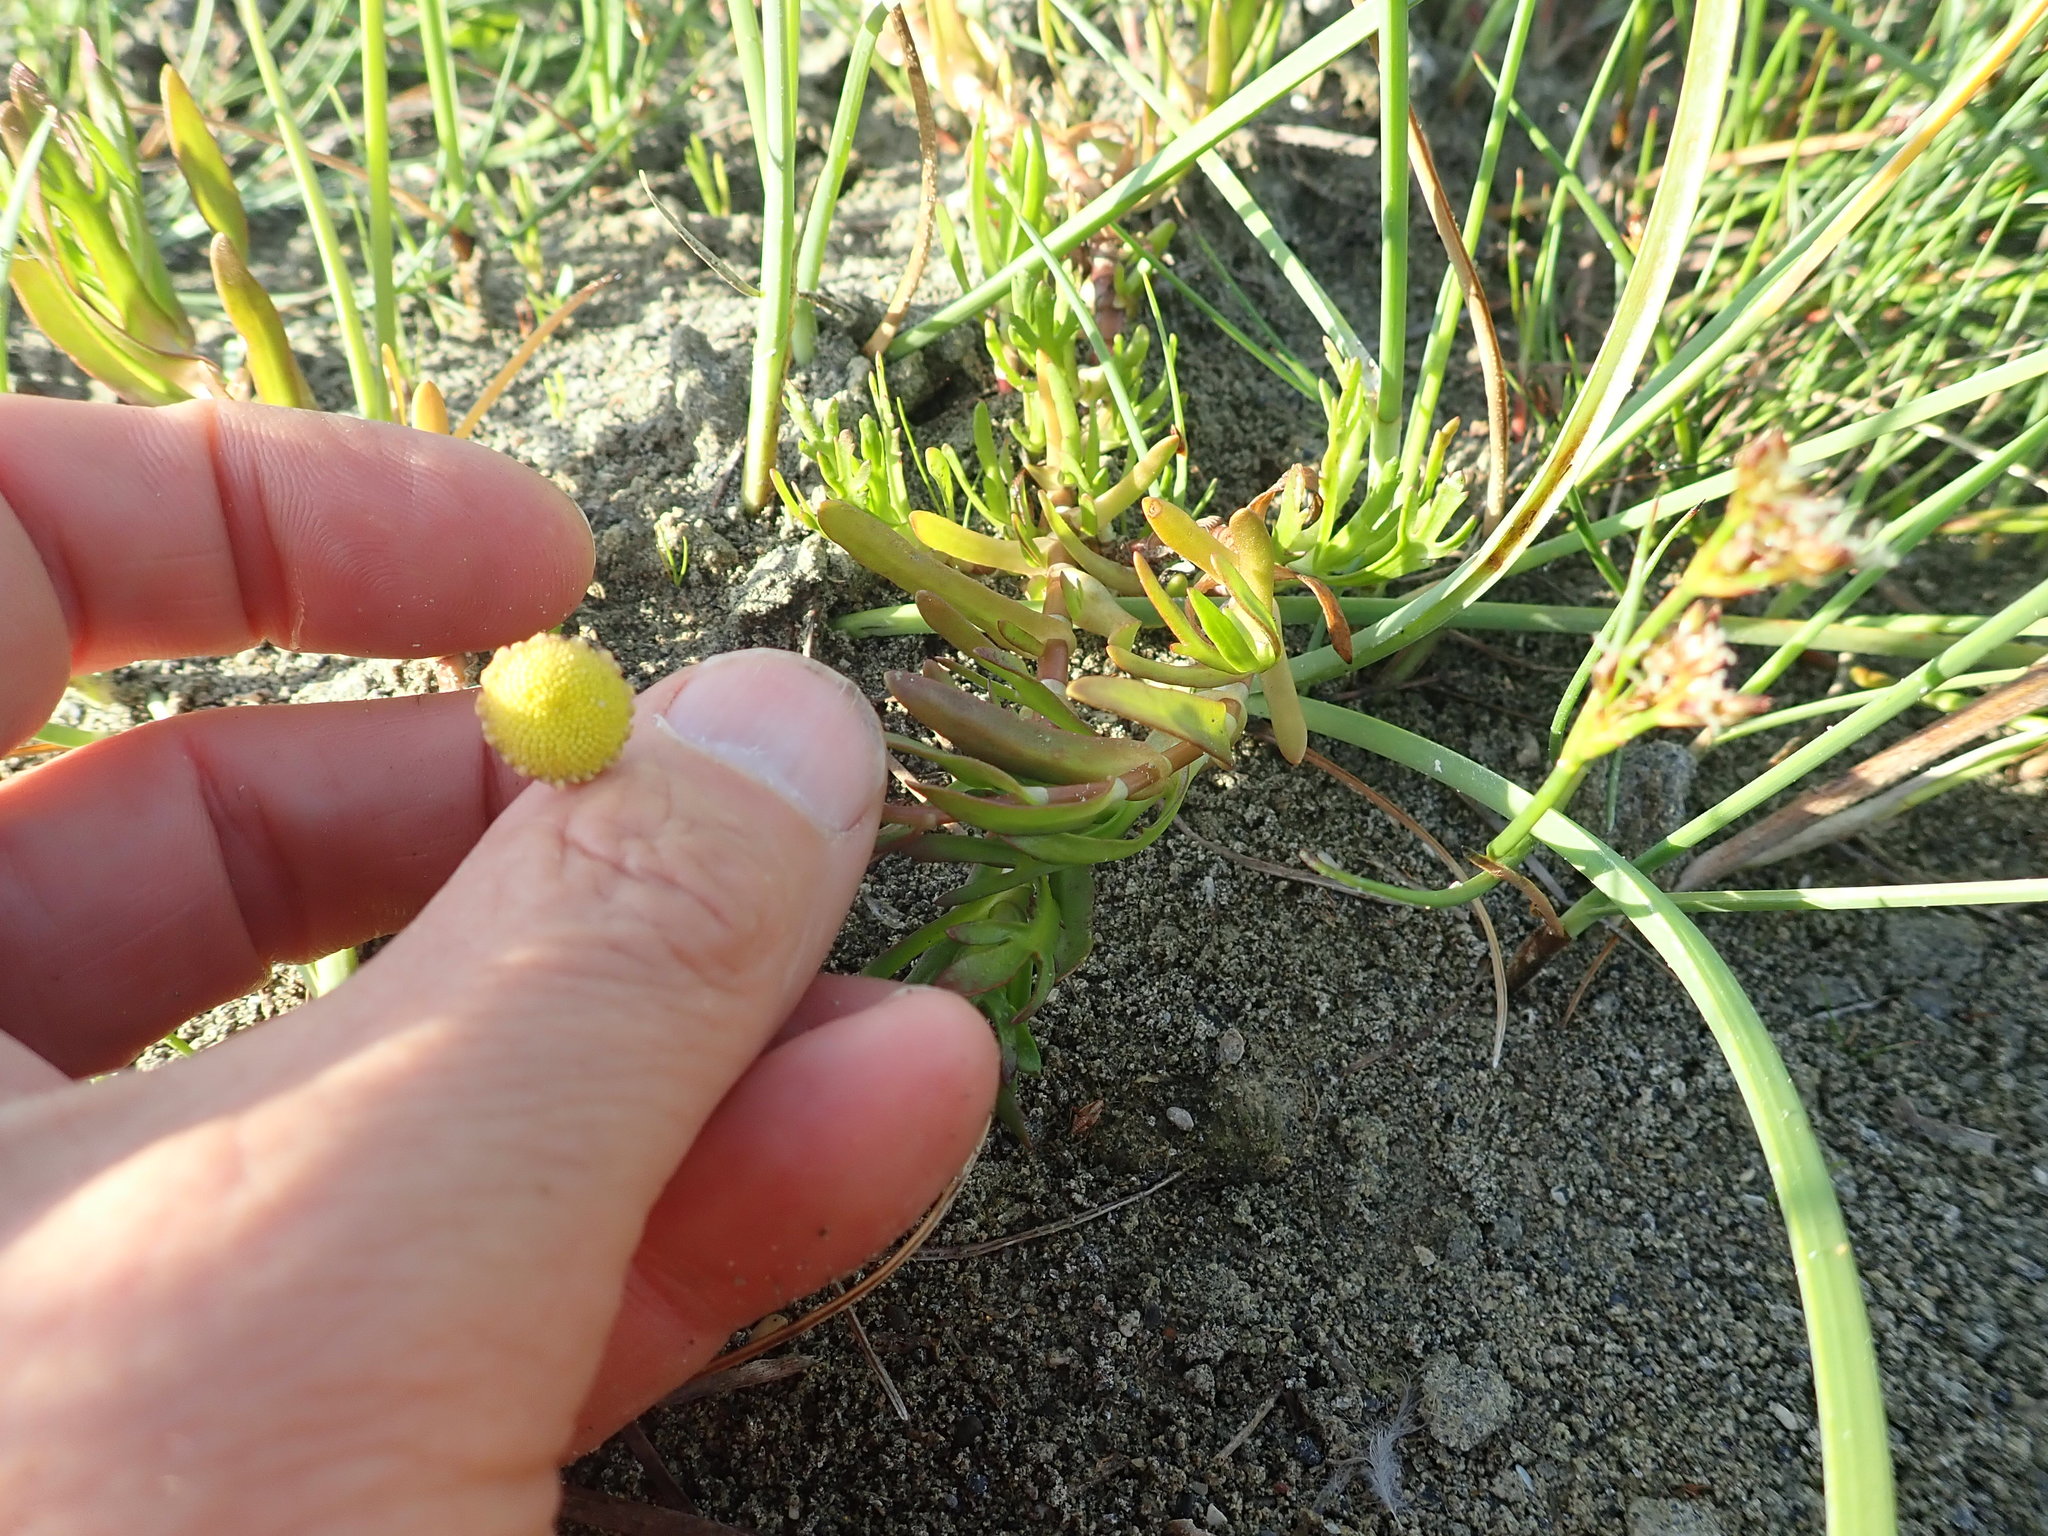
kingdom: Plantae
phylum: Tracheophyta
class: Magnoliopsida
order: Asterales
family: Asteraceae
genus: Cotula
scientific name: Cotula coronopifolia
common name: Buttonweed
